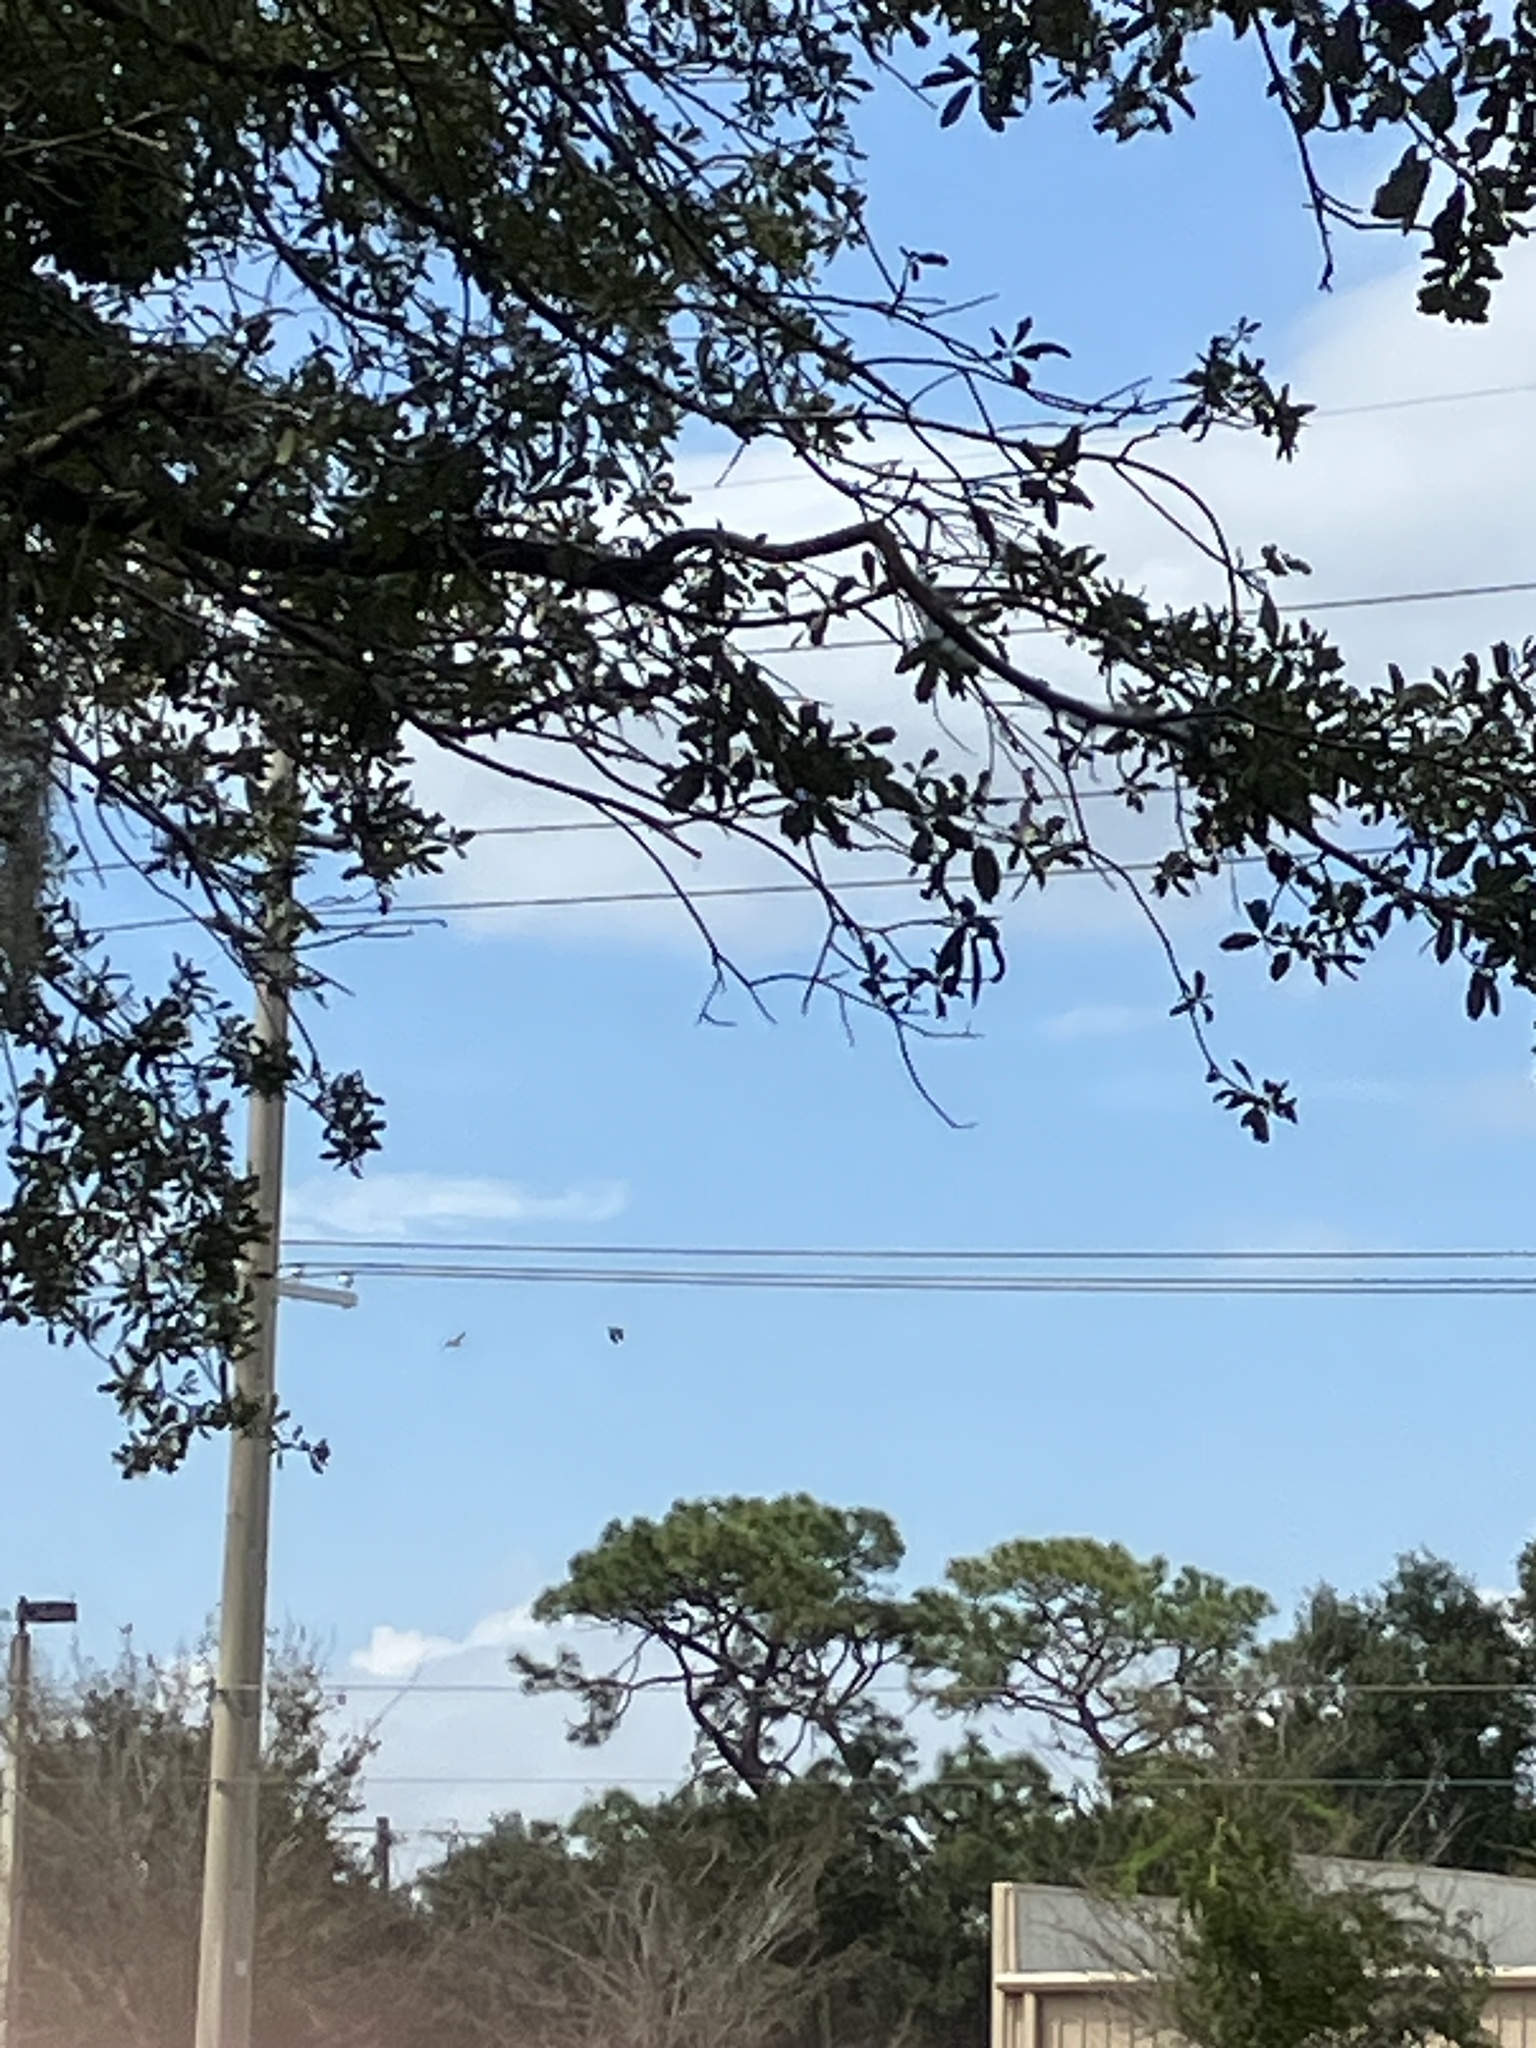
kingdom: Animalia
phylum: Chordata
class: Aves
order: Psittaciformes
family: Psittacidae
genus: Nandayus
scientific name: Nandayus nenday
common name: Nanday parakeet
